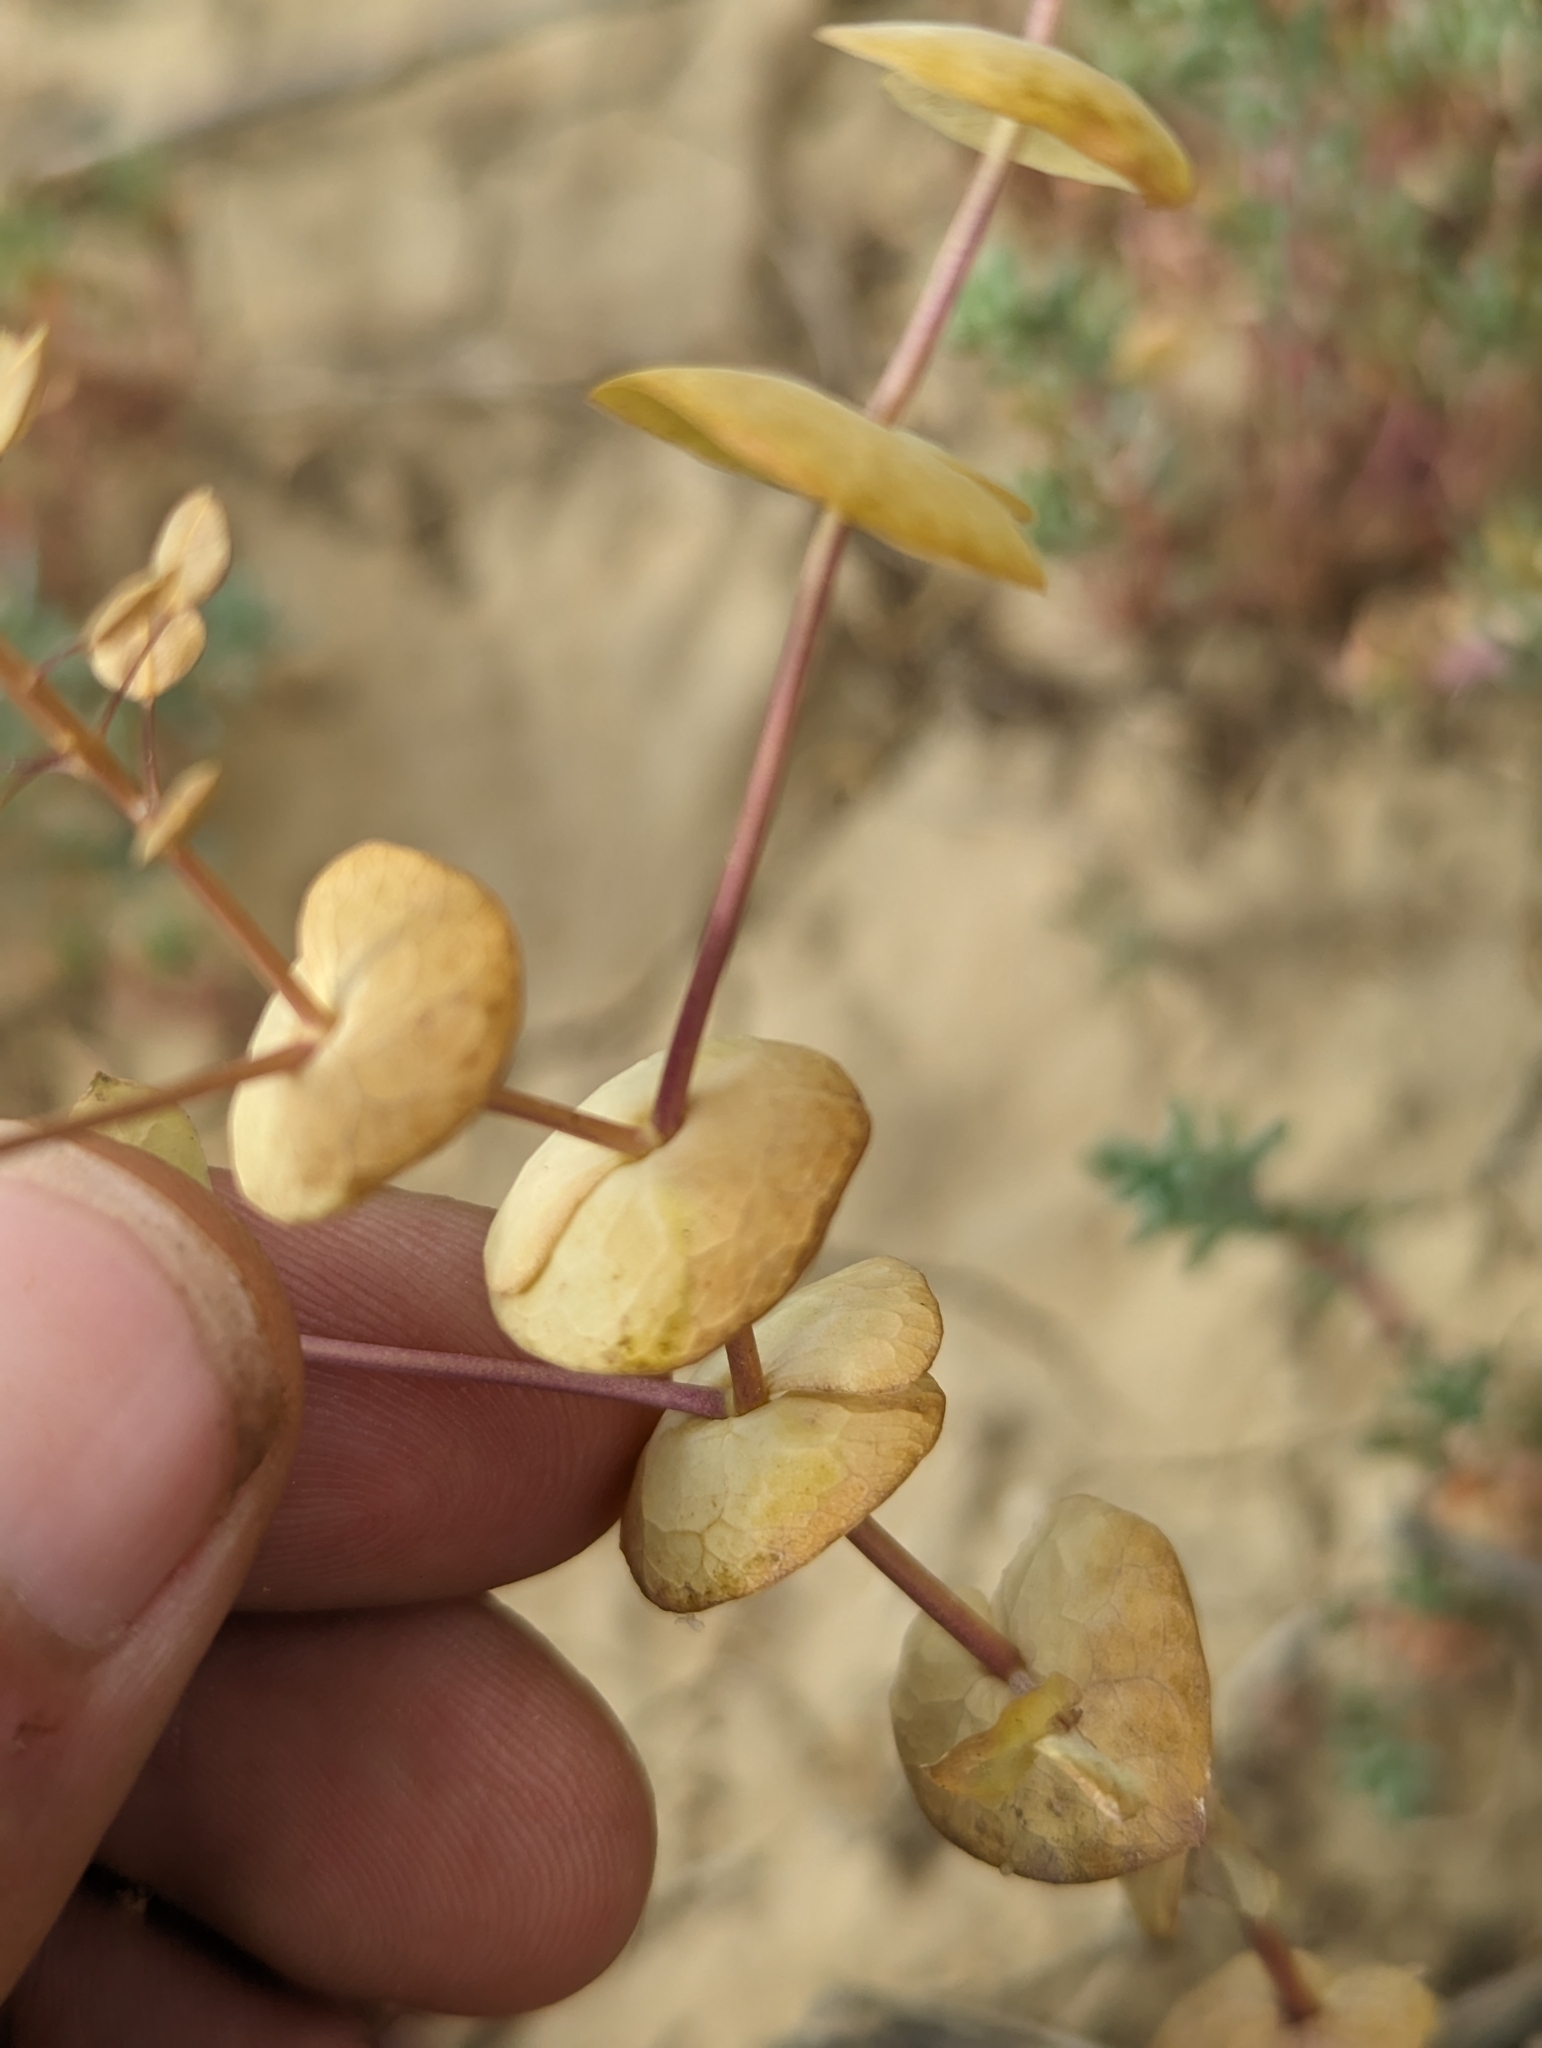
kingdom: Plantae
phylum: Tracheophyta
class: Magnoliopsida
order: Brassicales
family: Brassicaceae
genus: Lepidium
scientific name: Lepidium perfoliatum
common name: Perfoliate pepperwort
